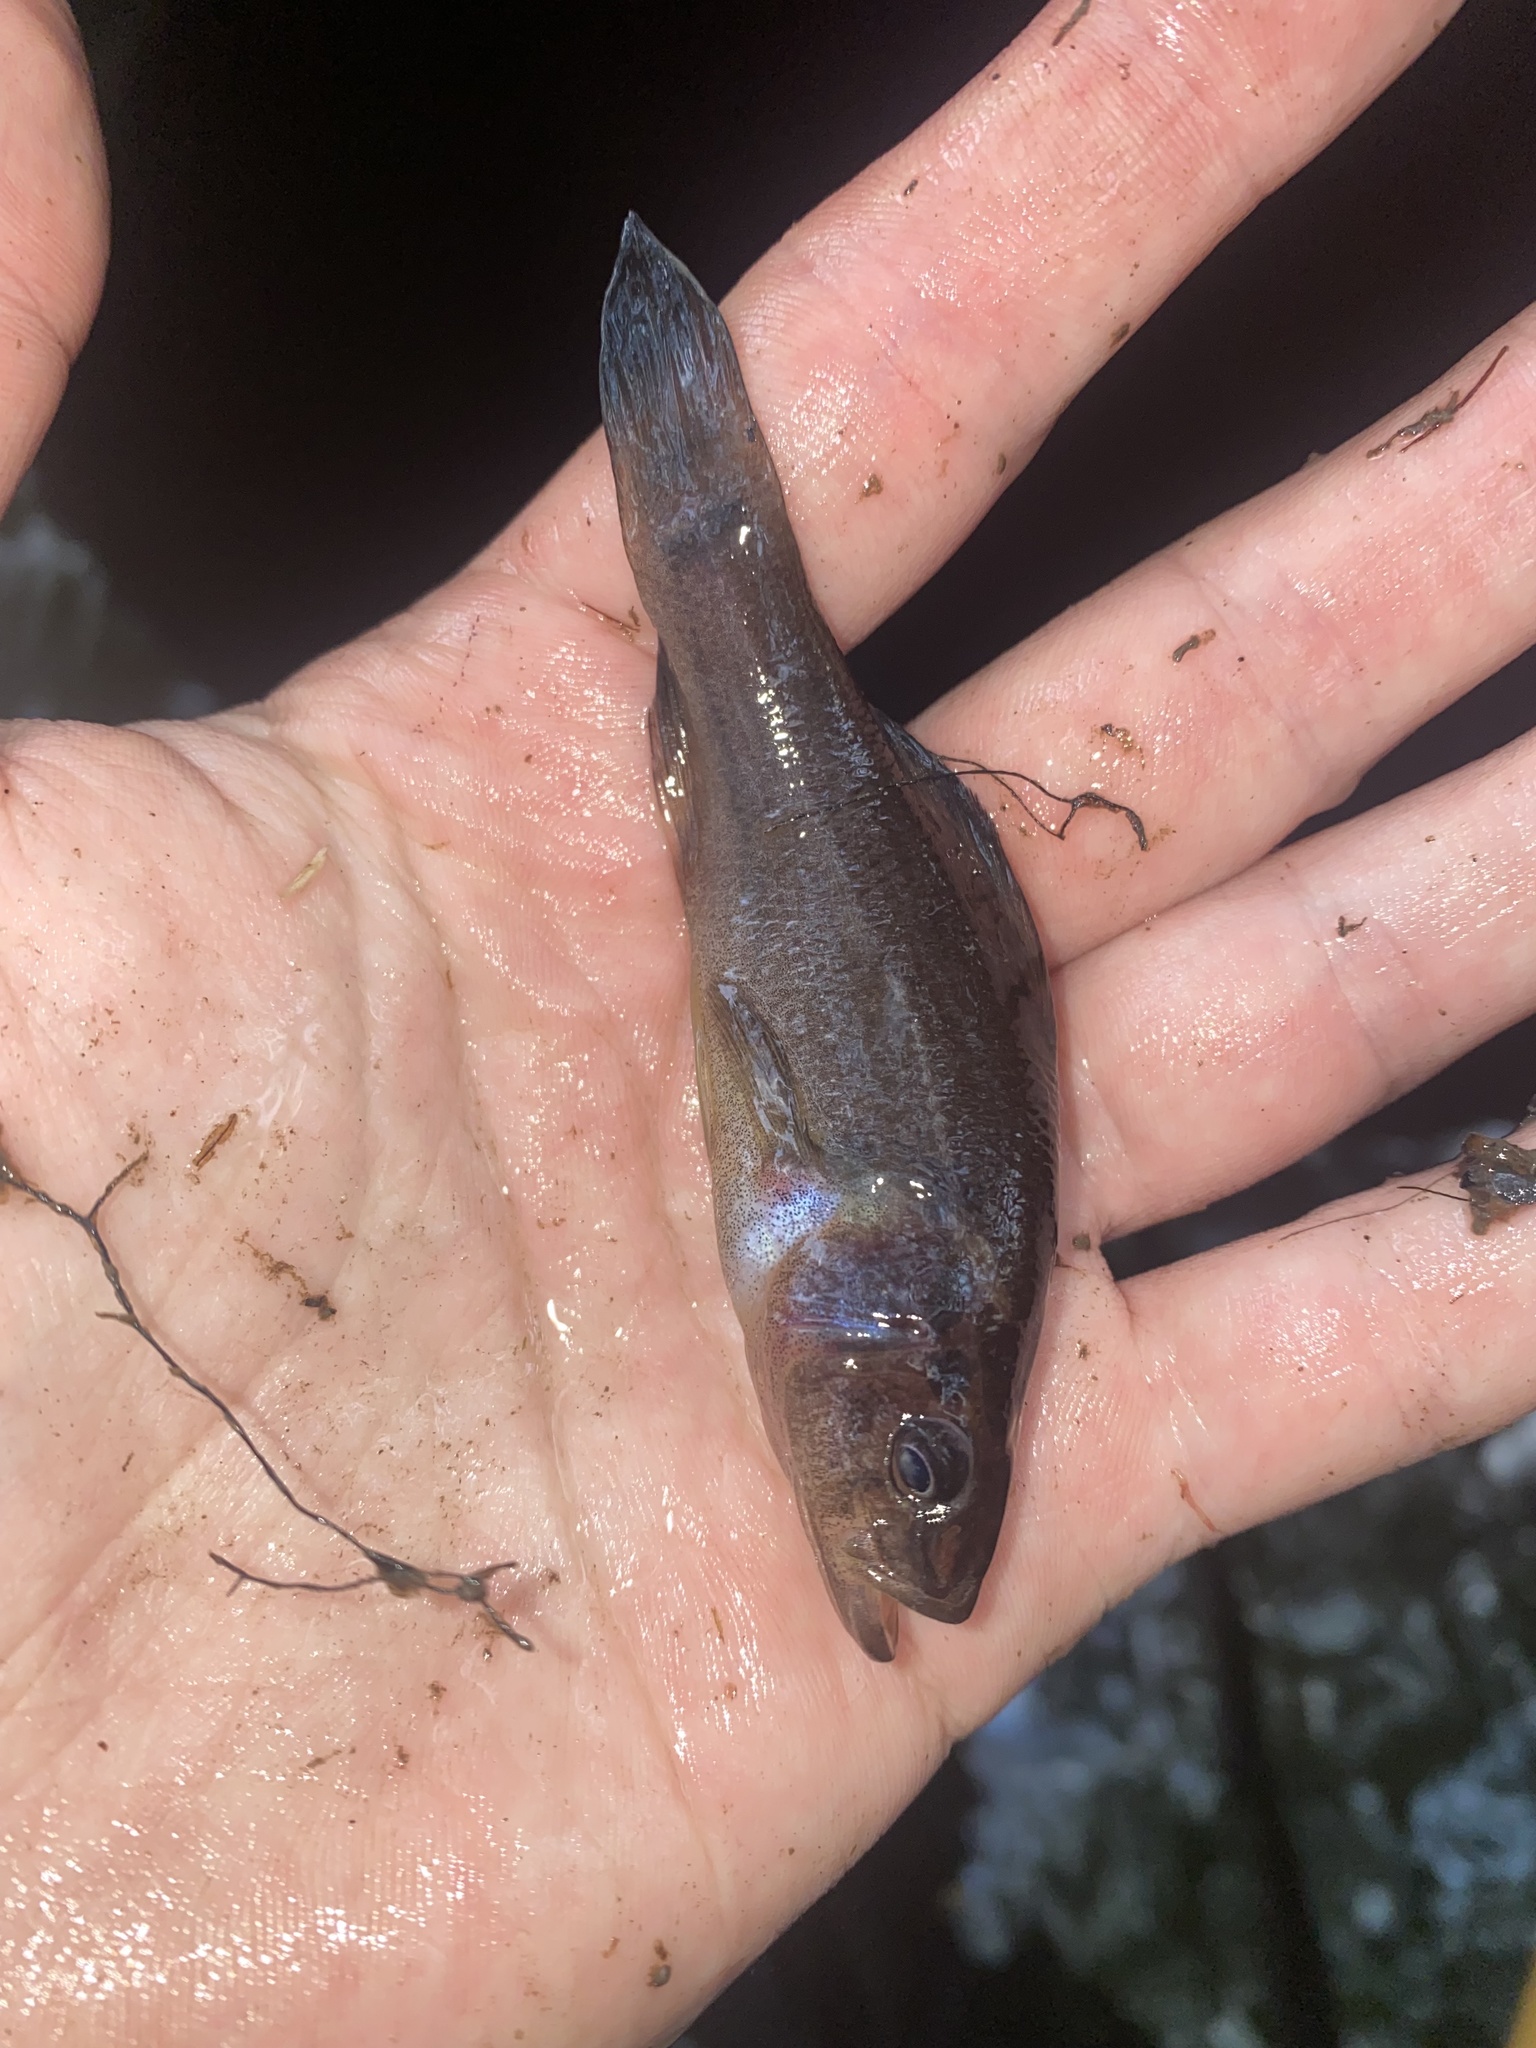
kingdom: Animalia
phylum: Chordata
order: Percopsiformes
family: Aphredoderidae
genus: Aphredoderus
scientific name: Aphredoderus
